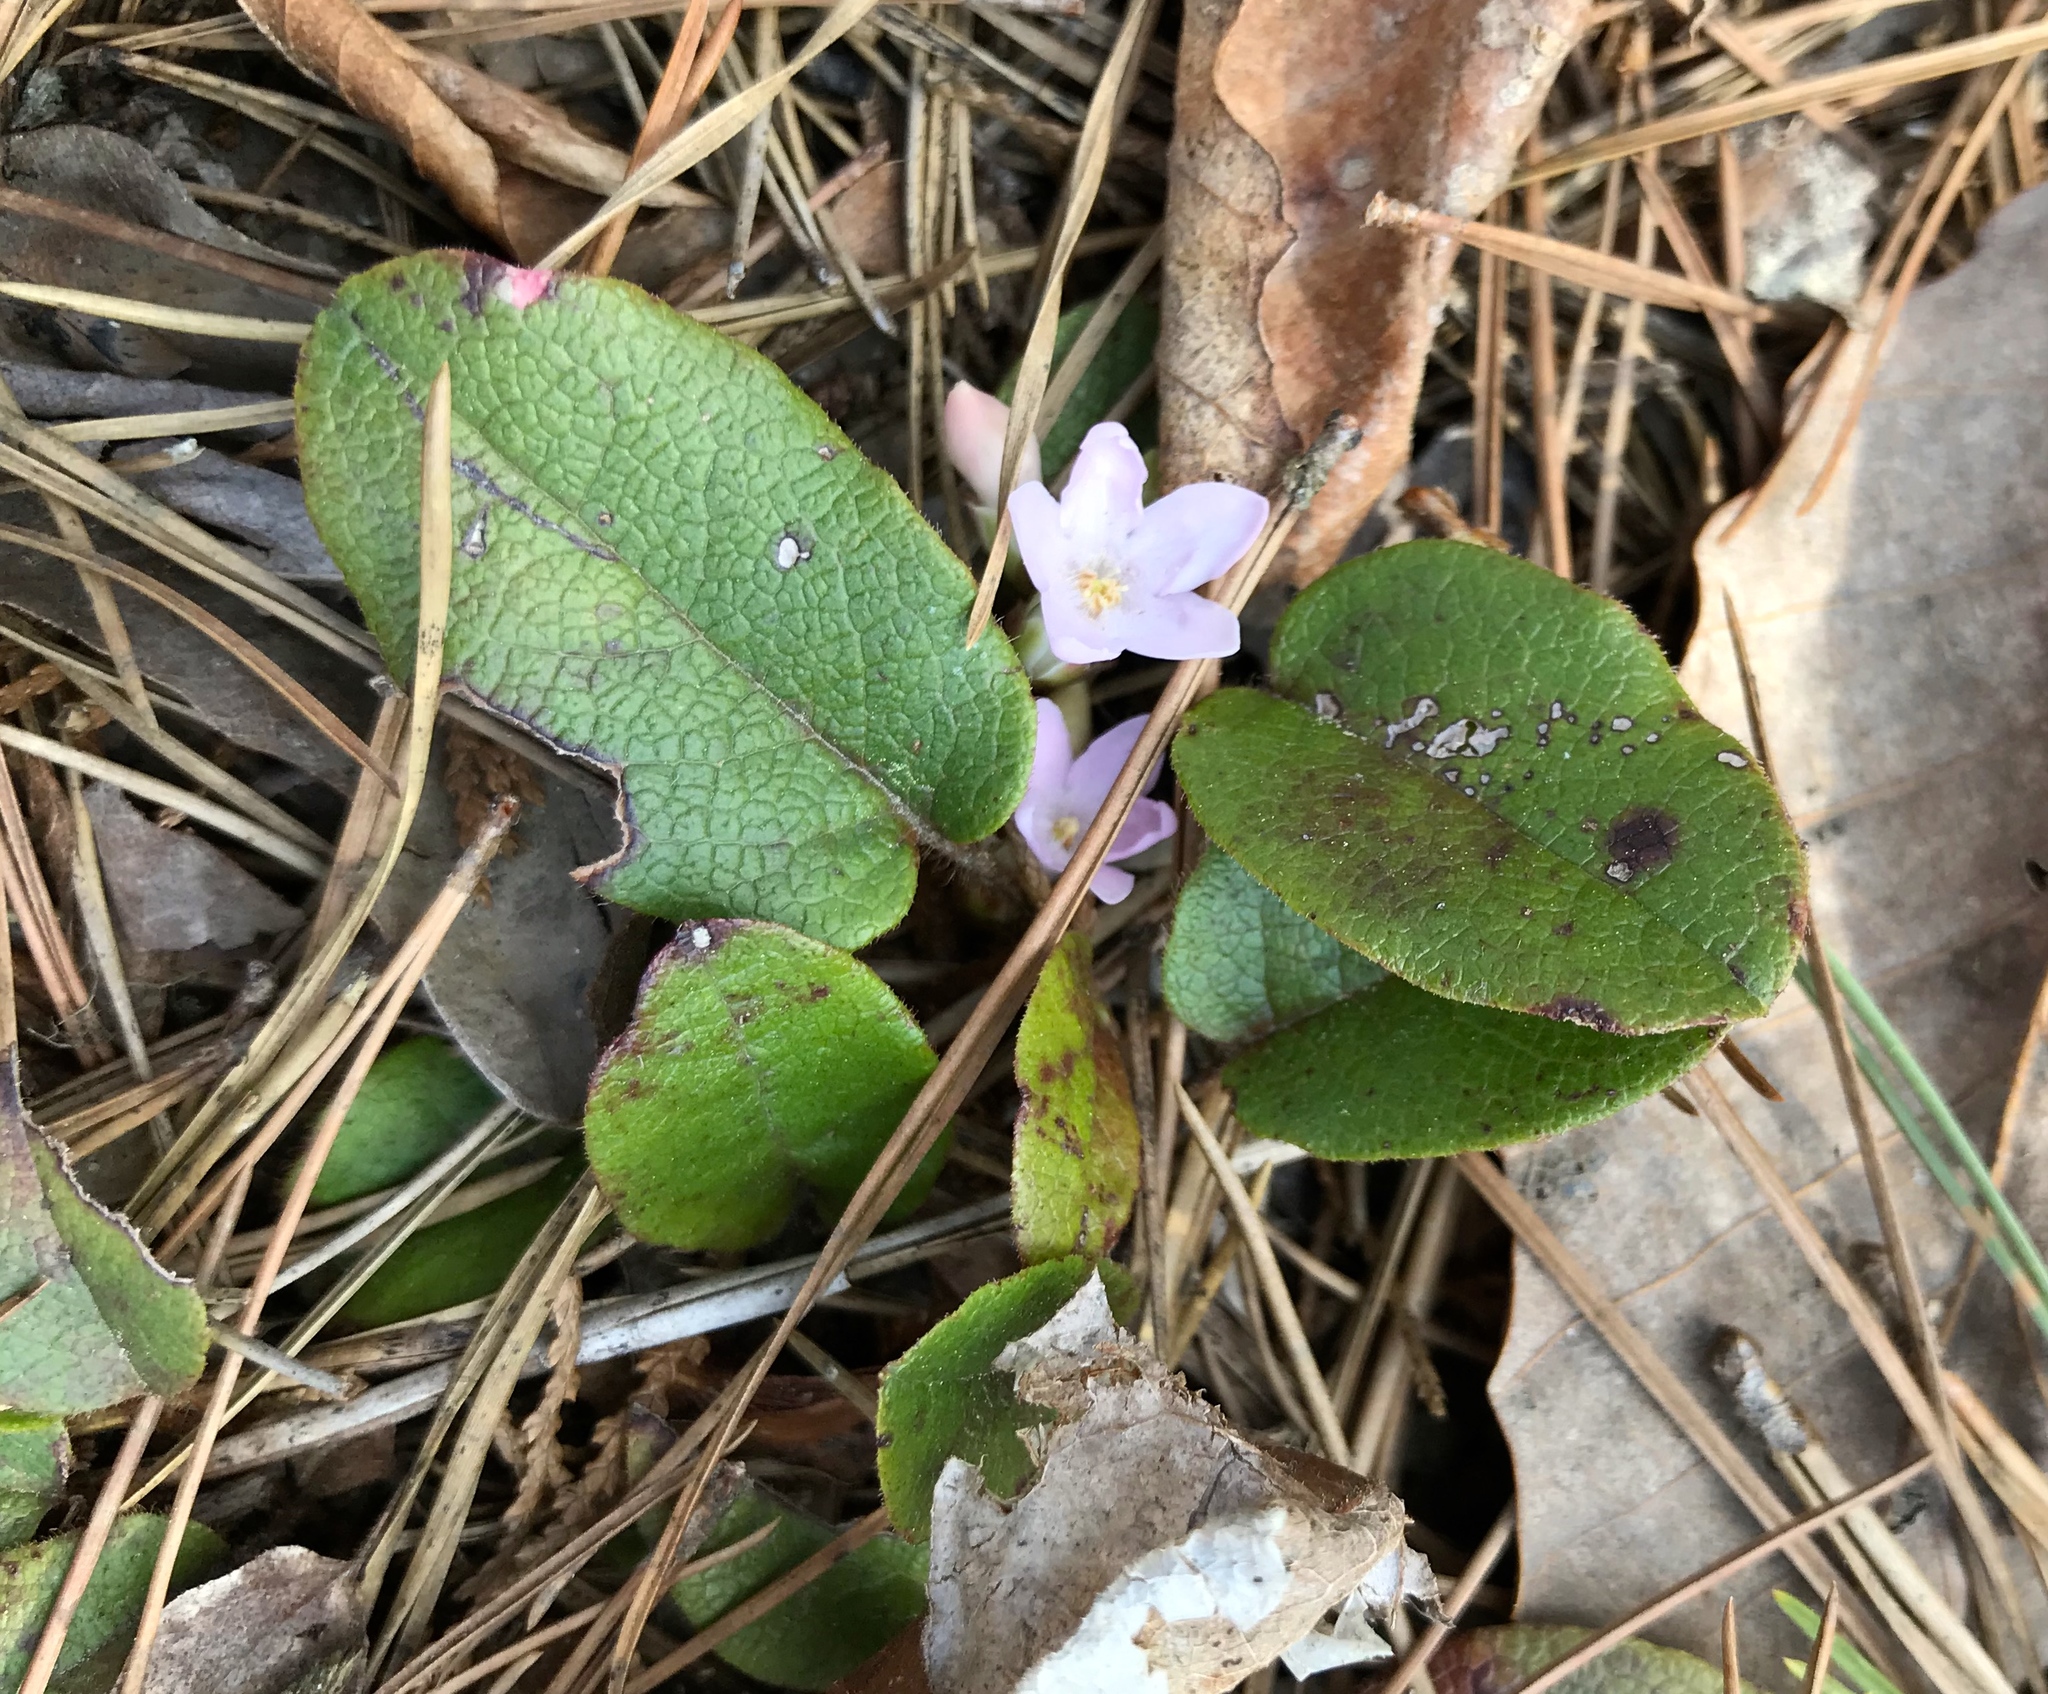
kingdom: Plantae
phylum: Tracheophyta
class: Magnoliopsida
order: Ericales
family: Ericaceae
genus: Epigaea
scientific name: Epigaea repens
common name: Gravelroot
